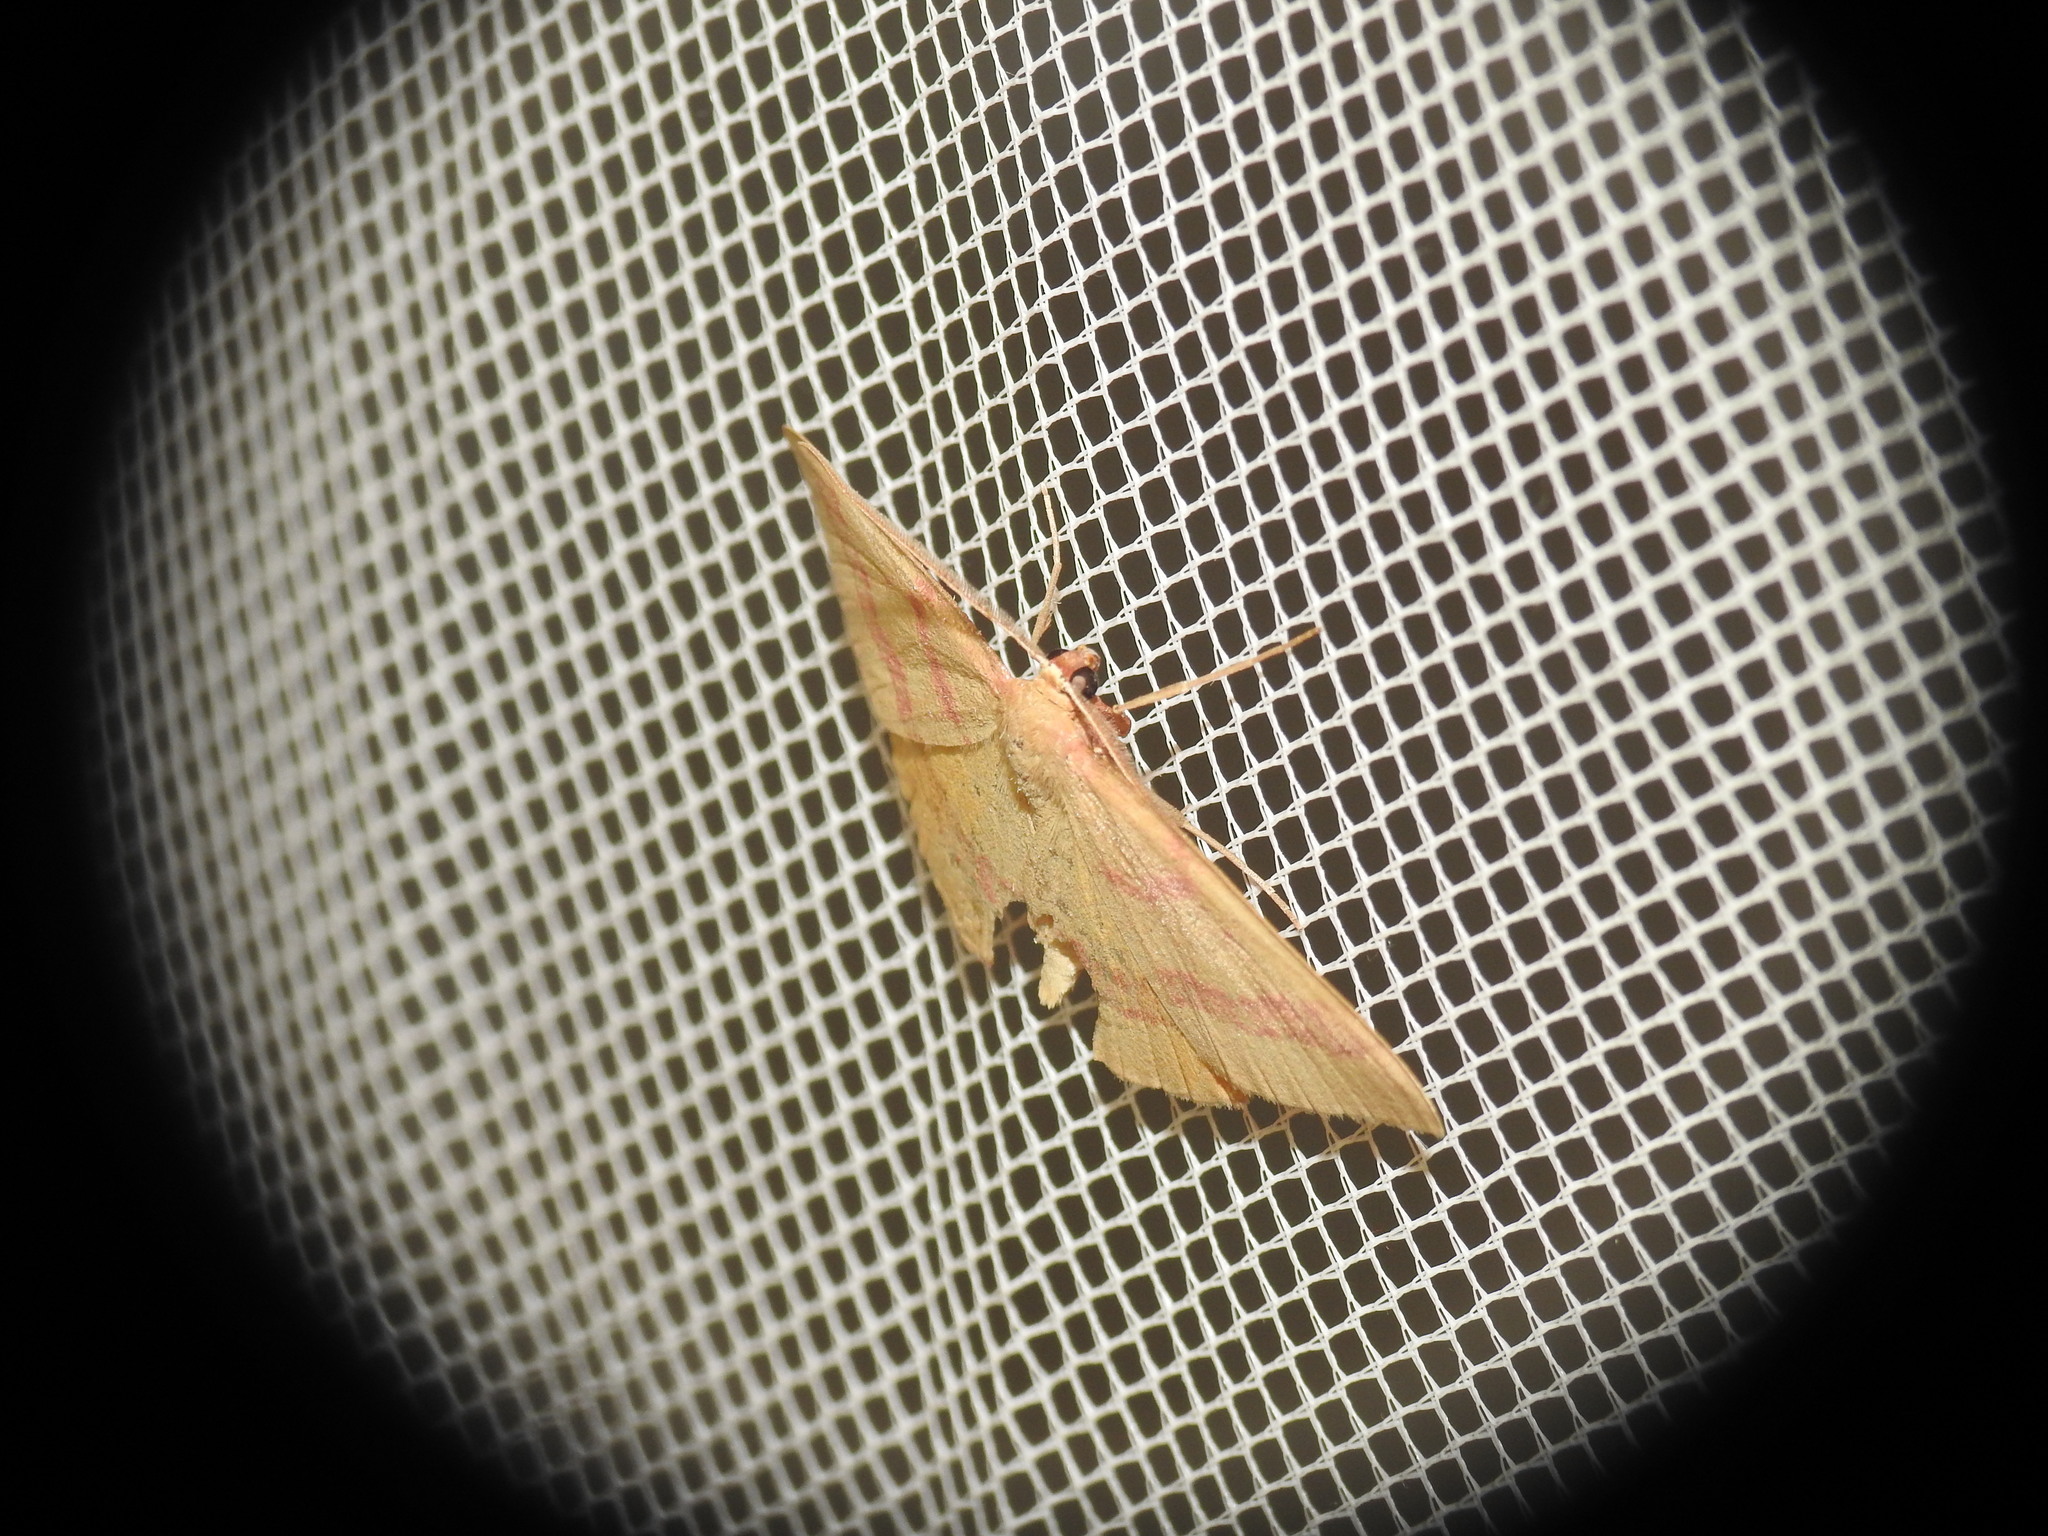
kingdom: Animalia
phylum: Arthropoda
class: Insecta
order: Lepidoptera
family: Geometridae
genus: Rhodostrophia
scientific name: Rhodostrophia calabra
